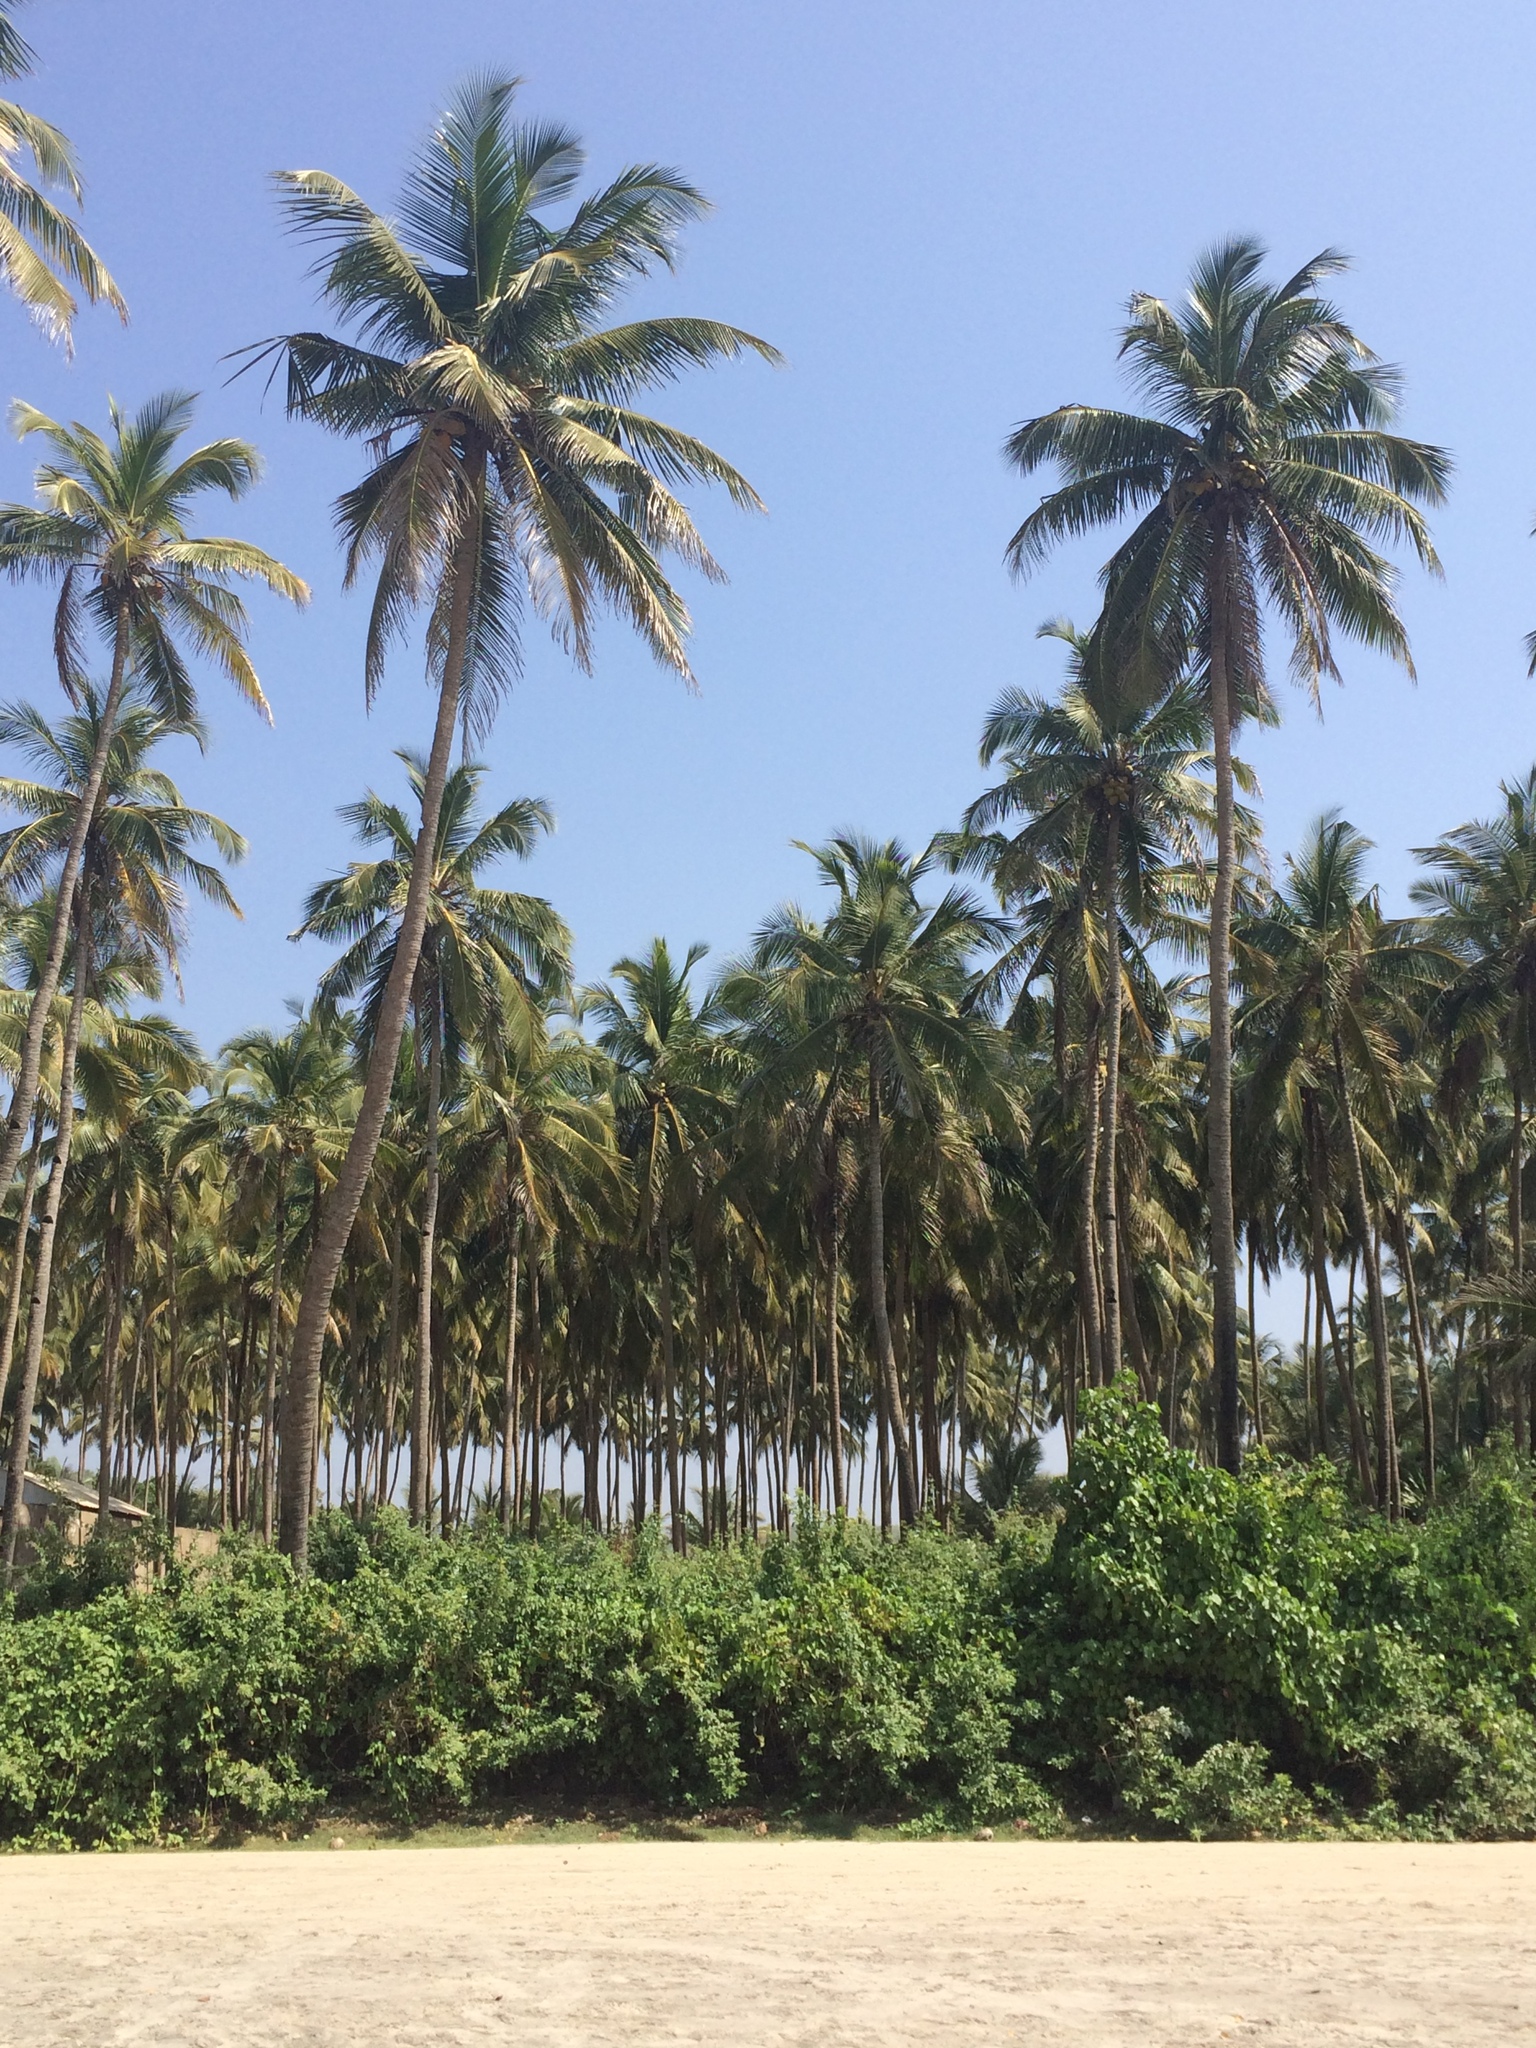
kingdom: Plantae
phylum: Tracheophyta
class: Liliopsida
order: Arecales
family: Arecaceae
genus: Cocos
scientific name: Cocos nucifera
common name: Coconut palm
